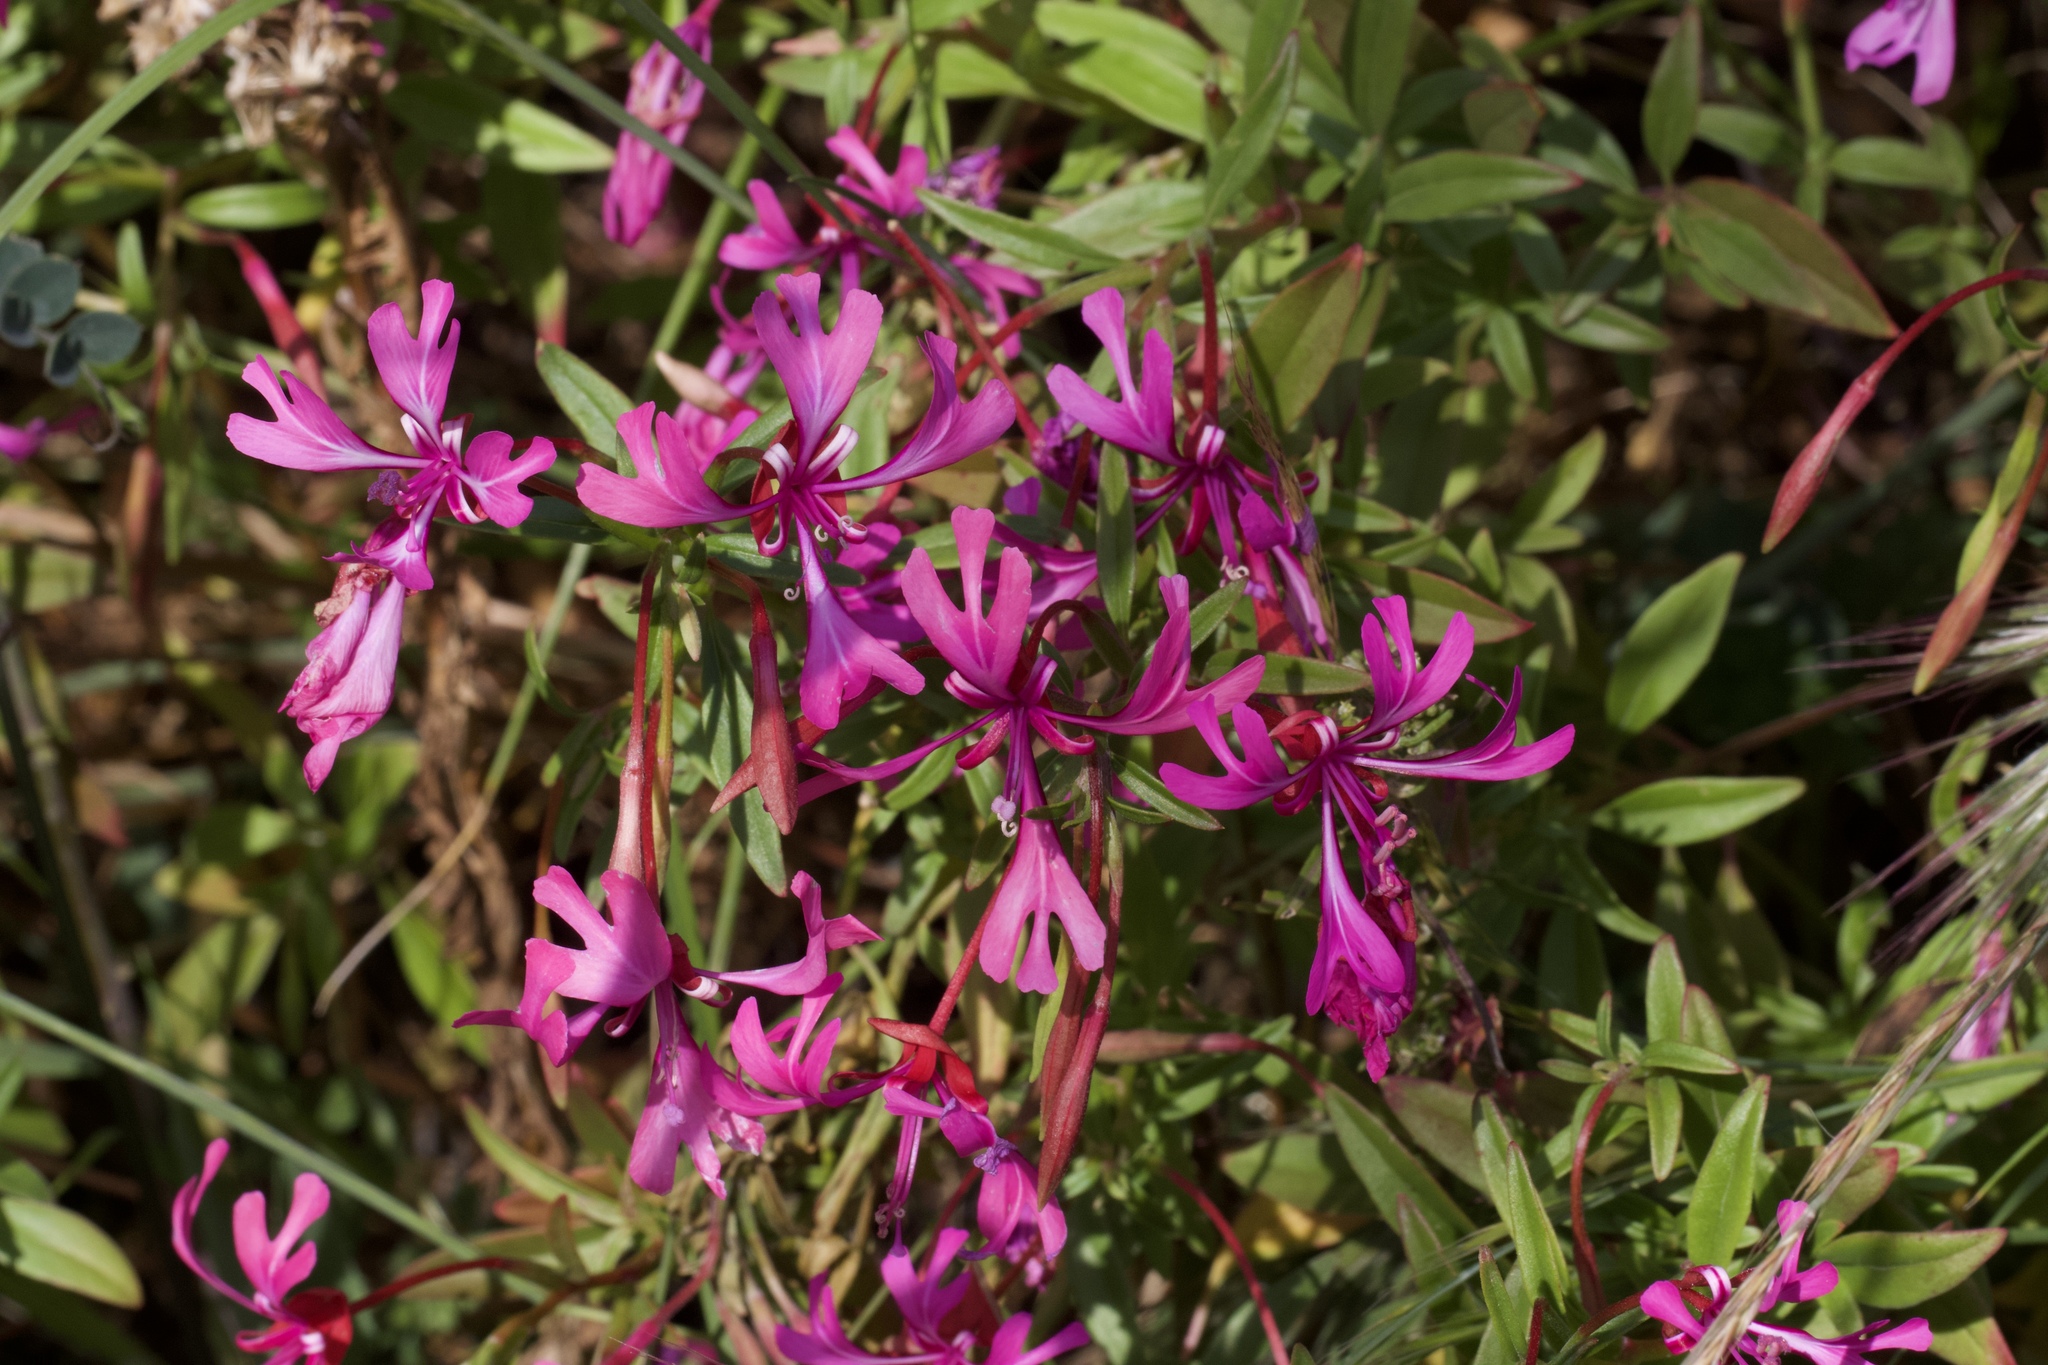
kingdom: Plantae
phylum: Tracheophyta
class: Magnoliopsida
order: Myrtales
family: Onagraceae
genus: Clarkia
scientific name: Clarkia concinna
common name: Red-ribbons
